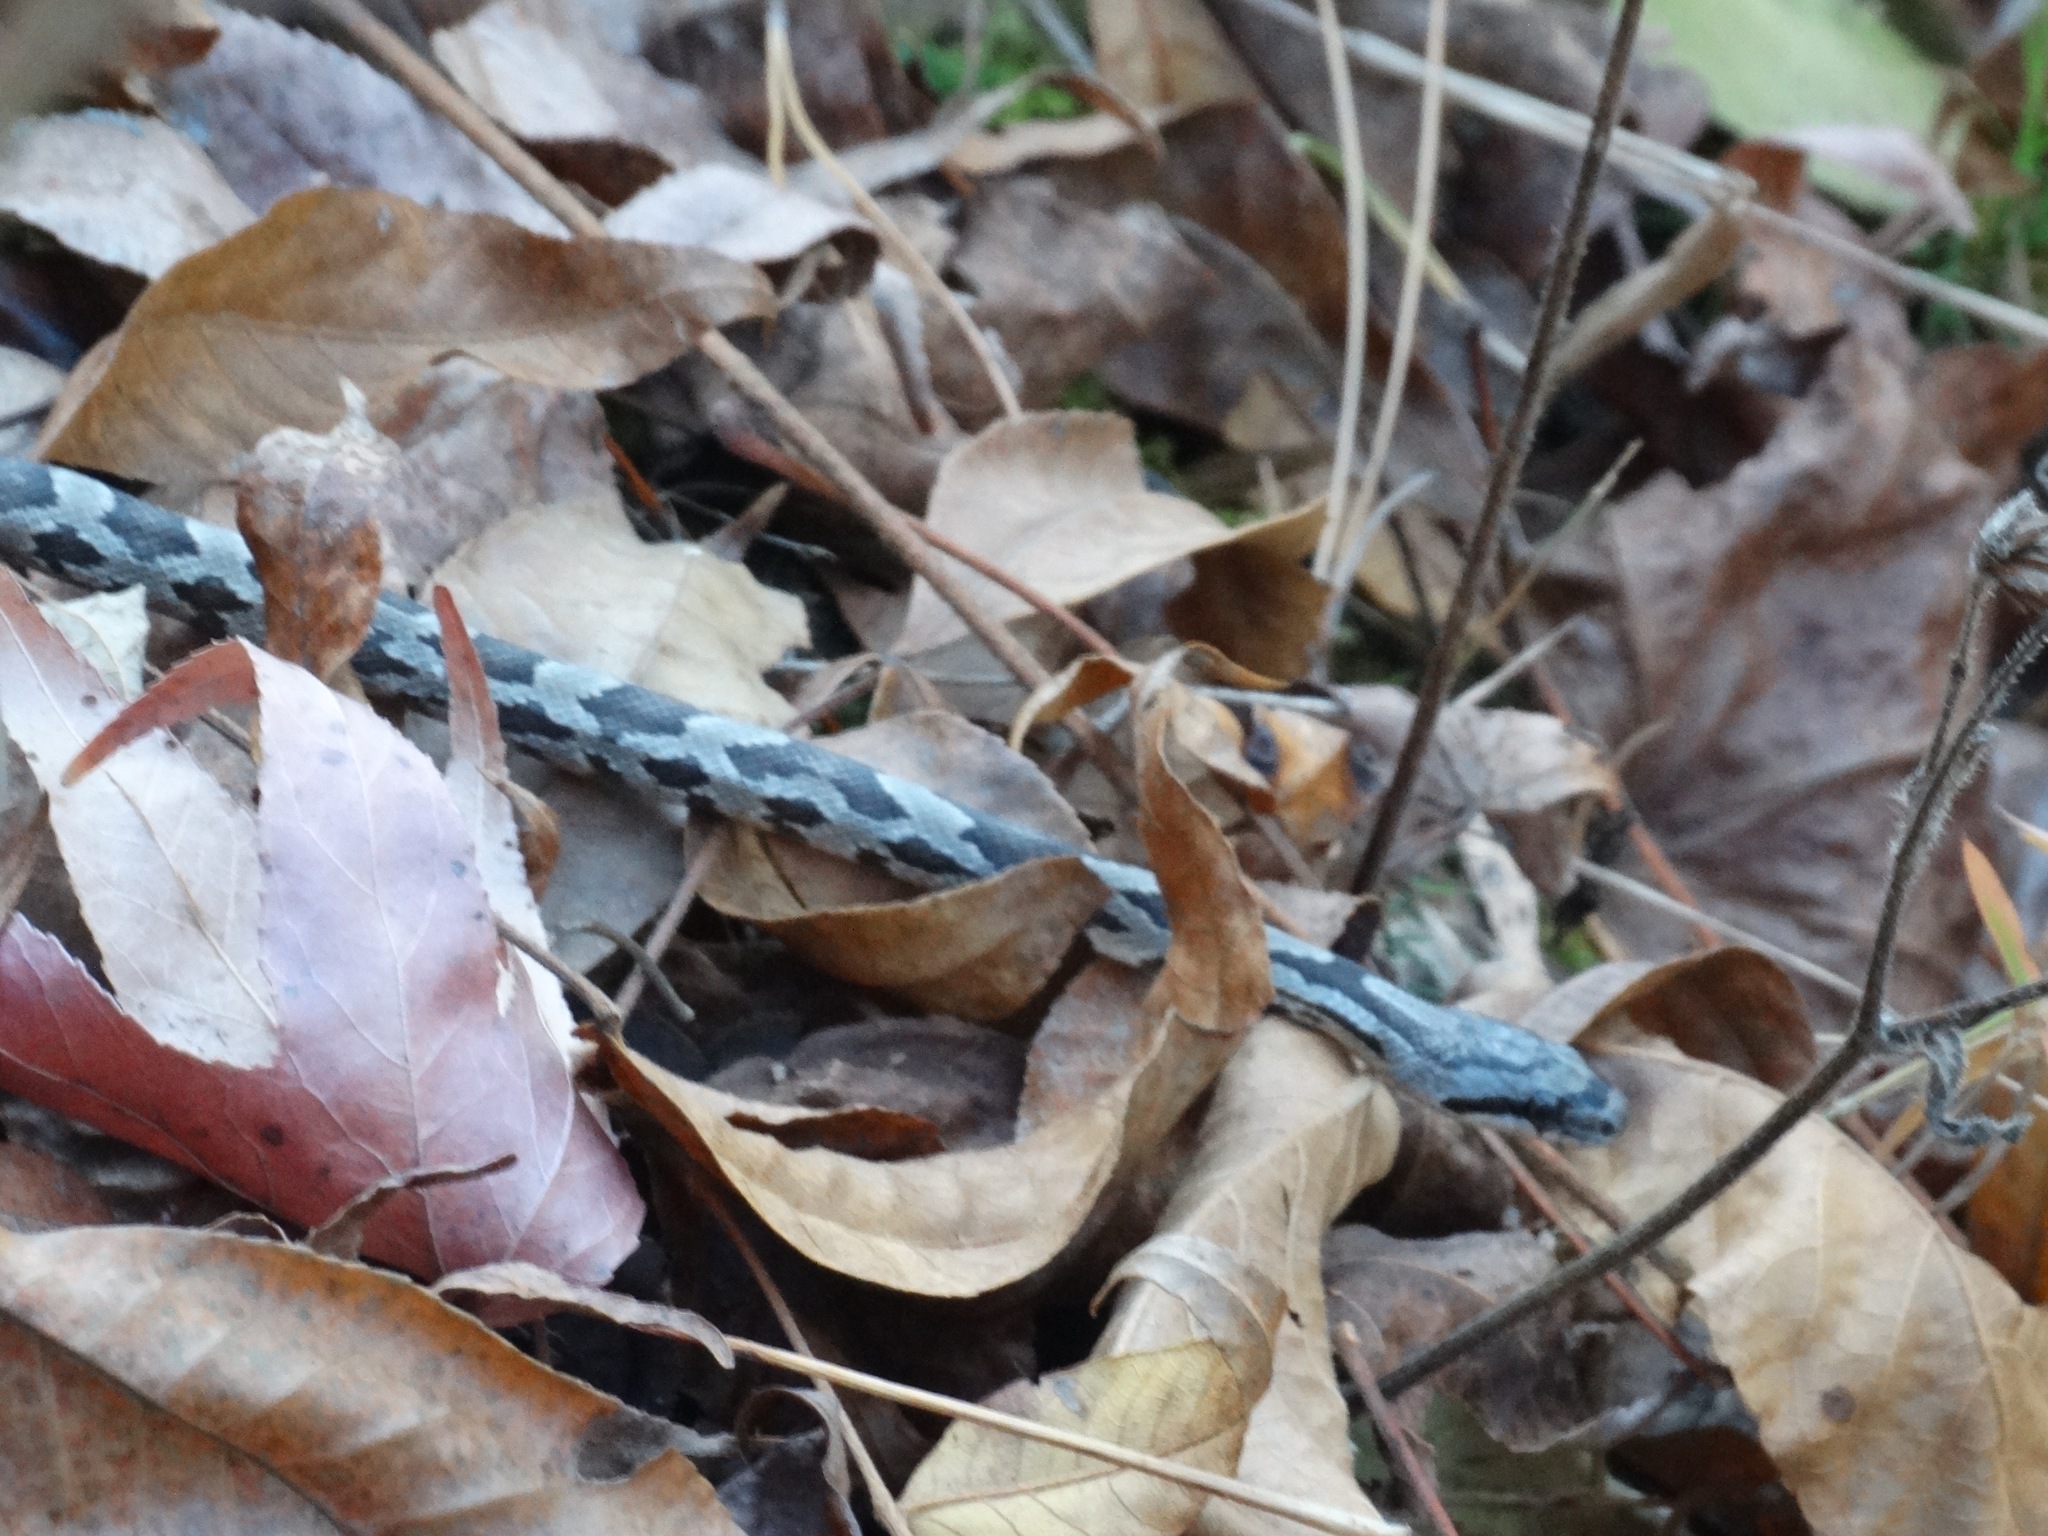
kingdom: Animalia
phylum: Chordata
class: Squamata
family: Colubridae
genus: Pantherophis
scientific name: Pantherophis obsoletus
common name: Black rat snake
